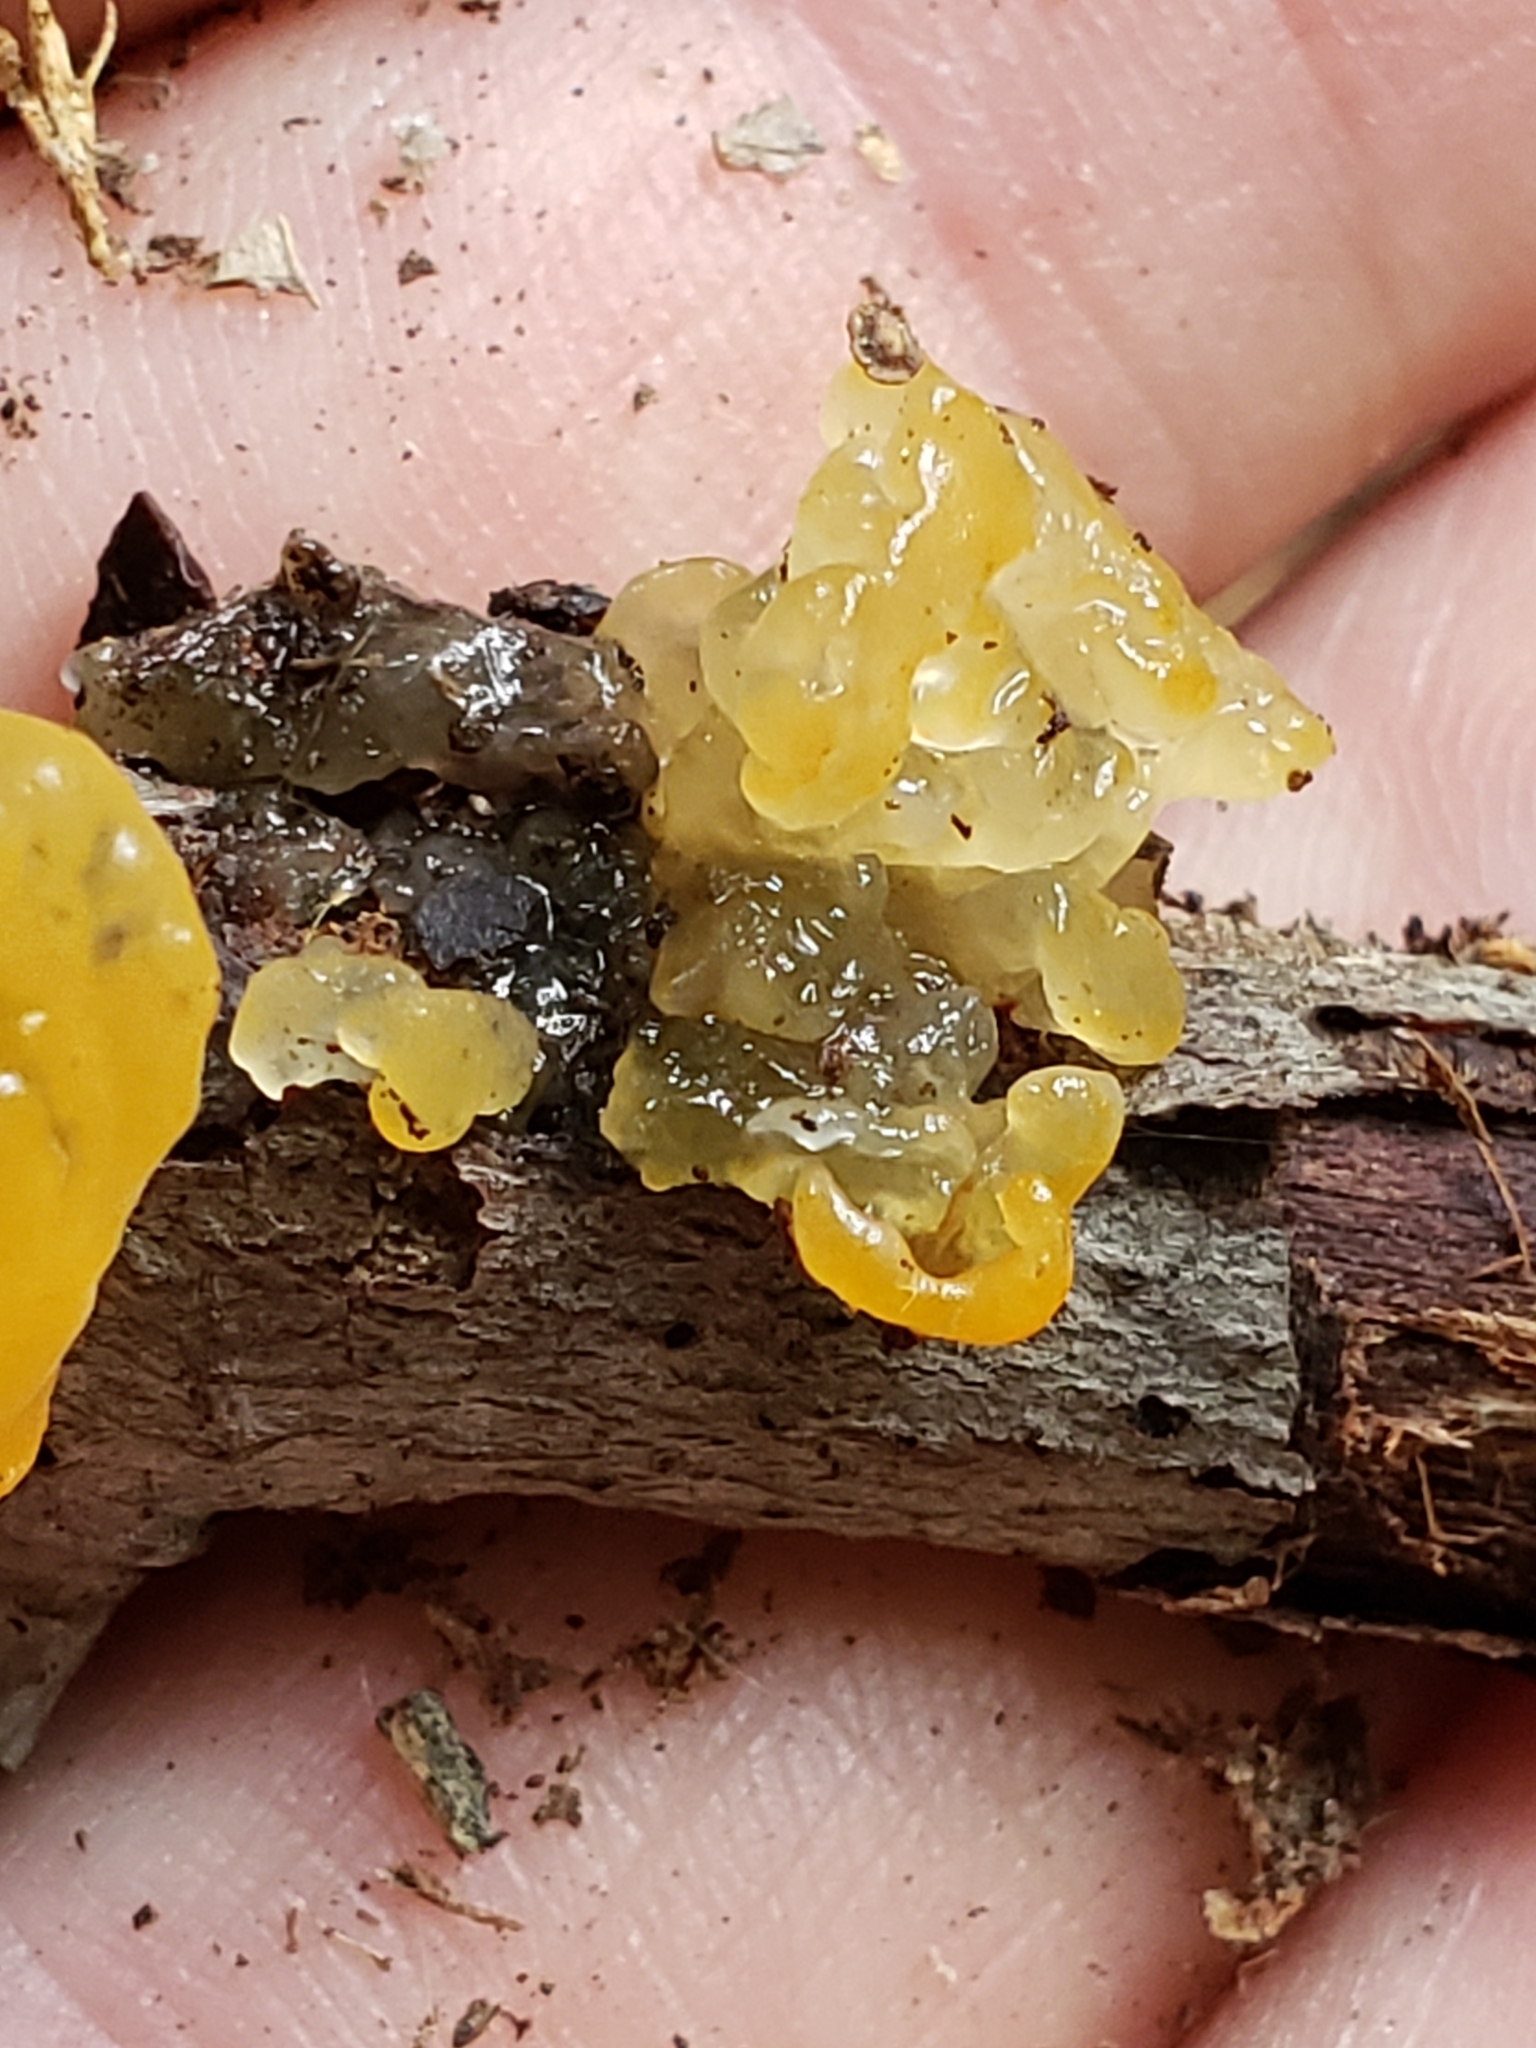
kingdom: Fungi
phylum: Basidiomycota
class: Tremellomycetes
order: Tremellales
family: Tremellaceae
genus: Tremella
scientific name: Tremella mesenterica
